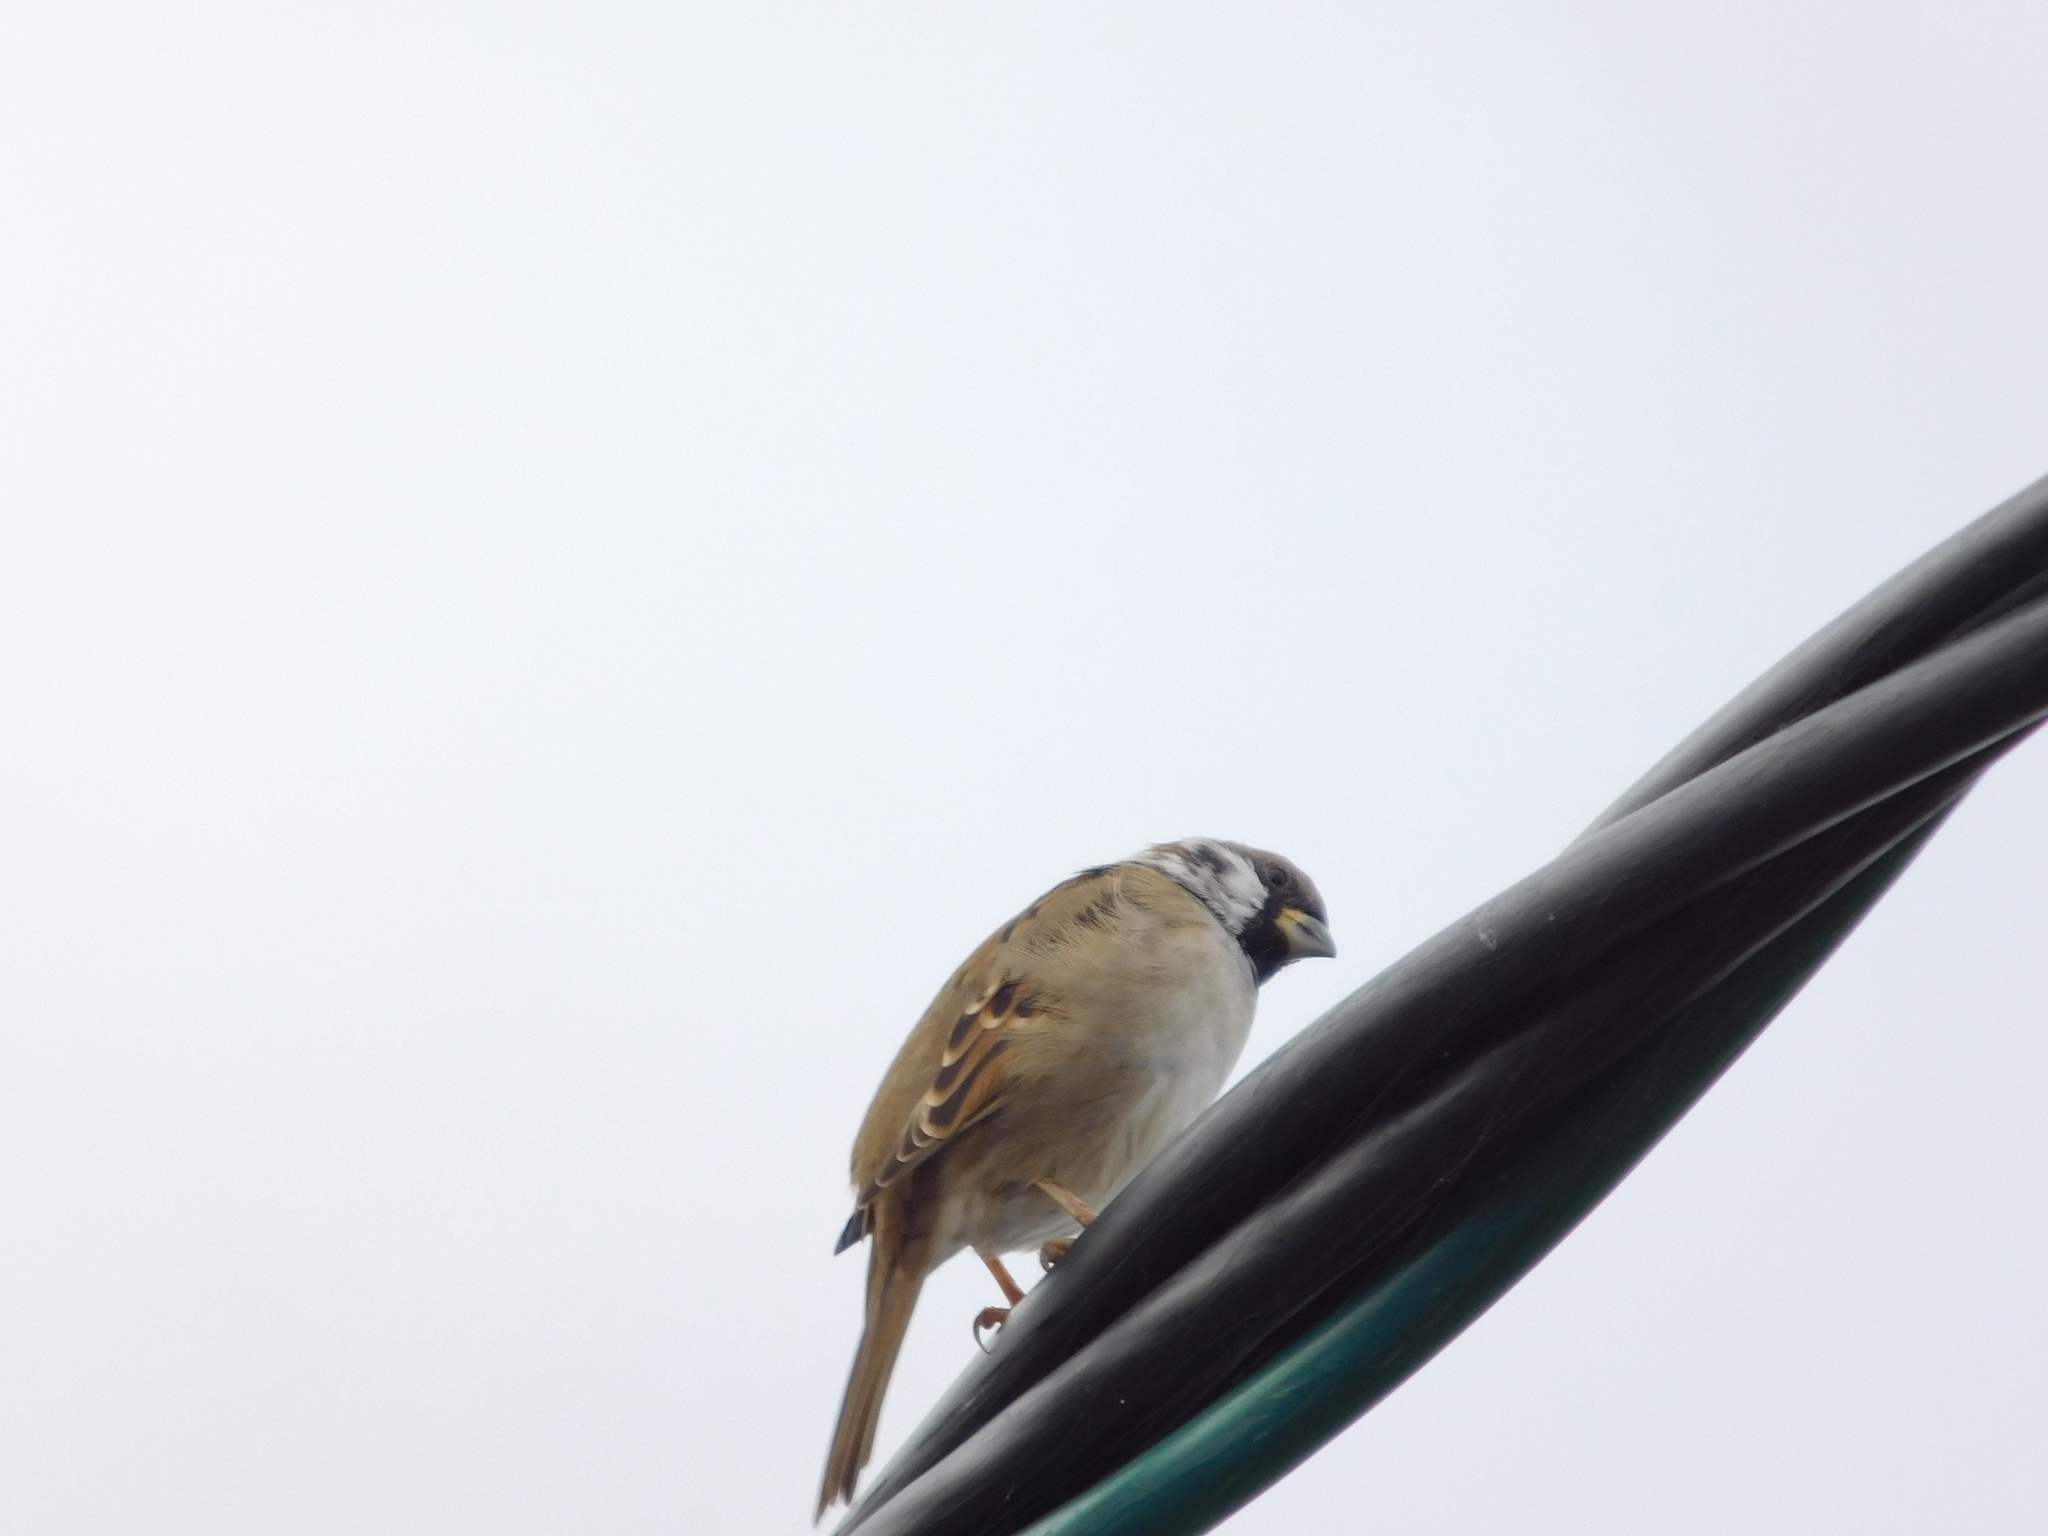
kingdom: Animalia
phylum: Chordata
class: Aves
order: Passeriformes
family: Passeridae
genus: Passer
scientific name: Passer montanus
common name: Eurasian tree sparrow
